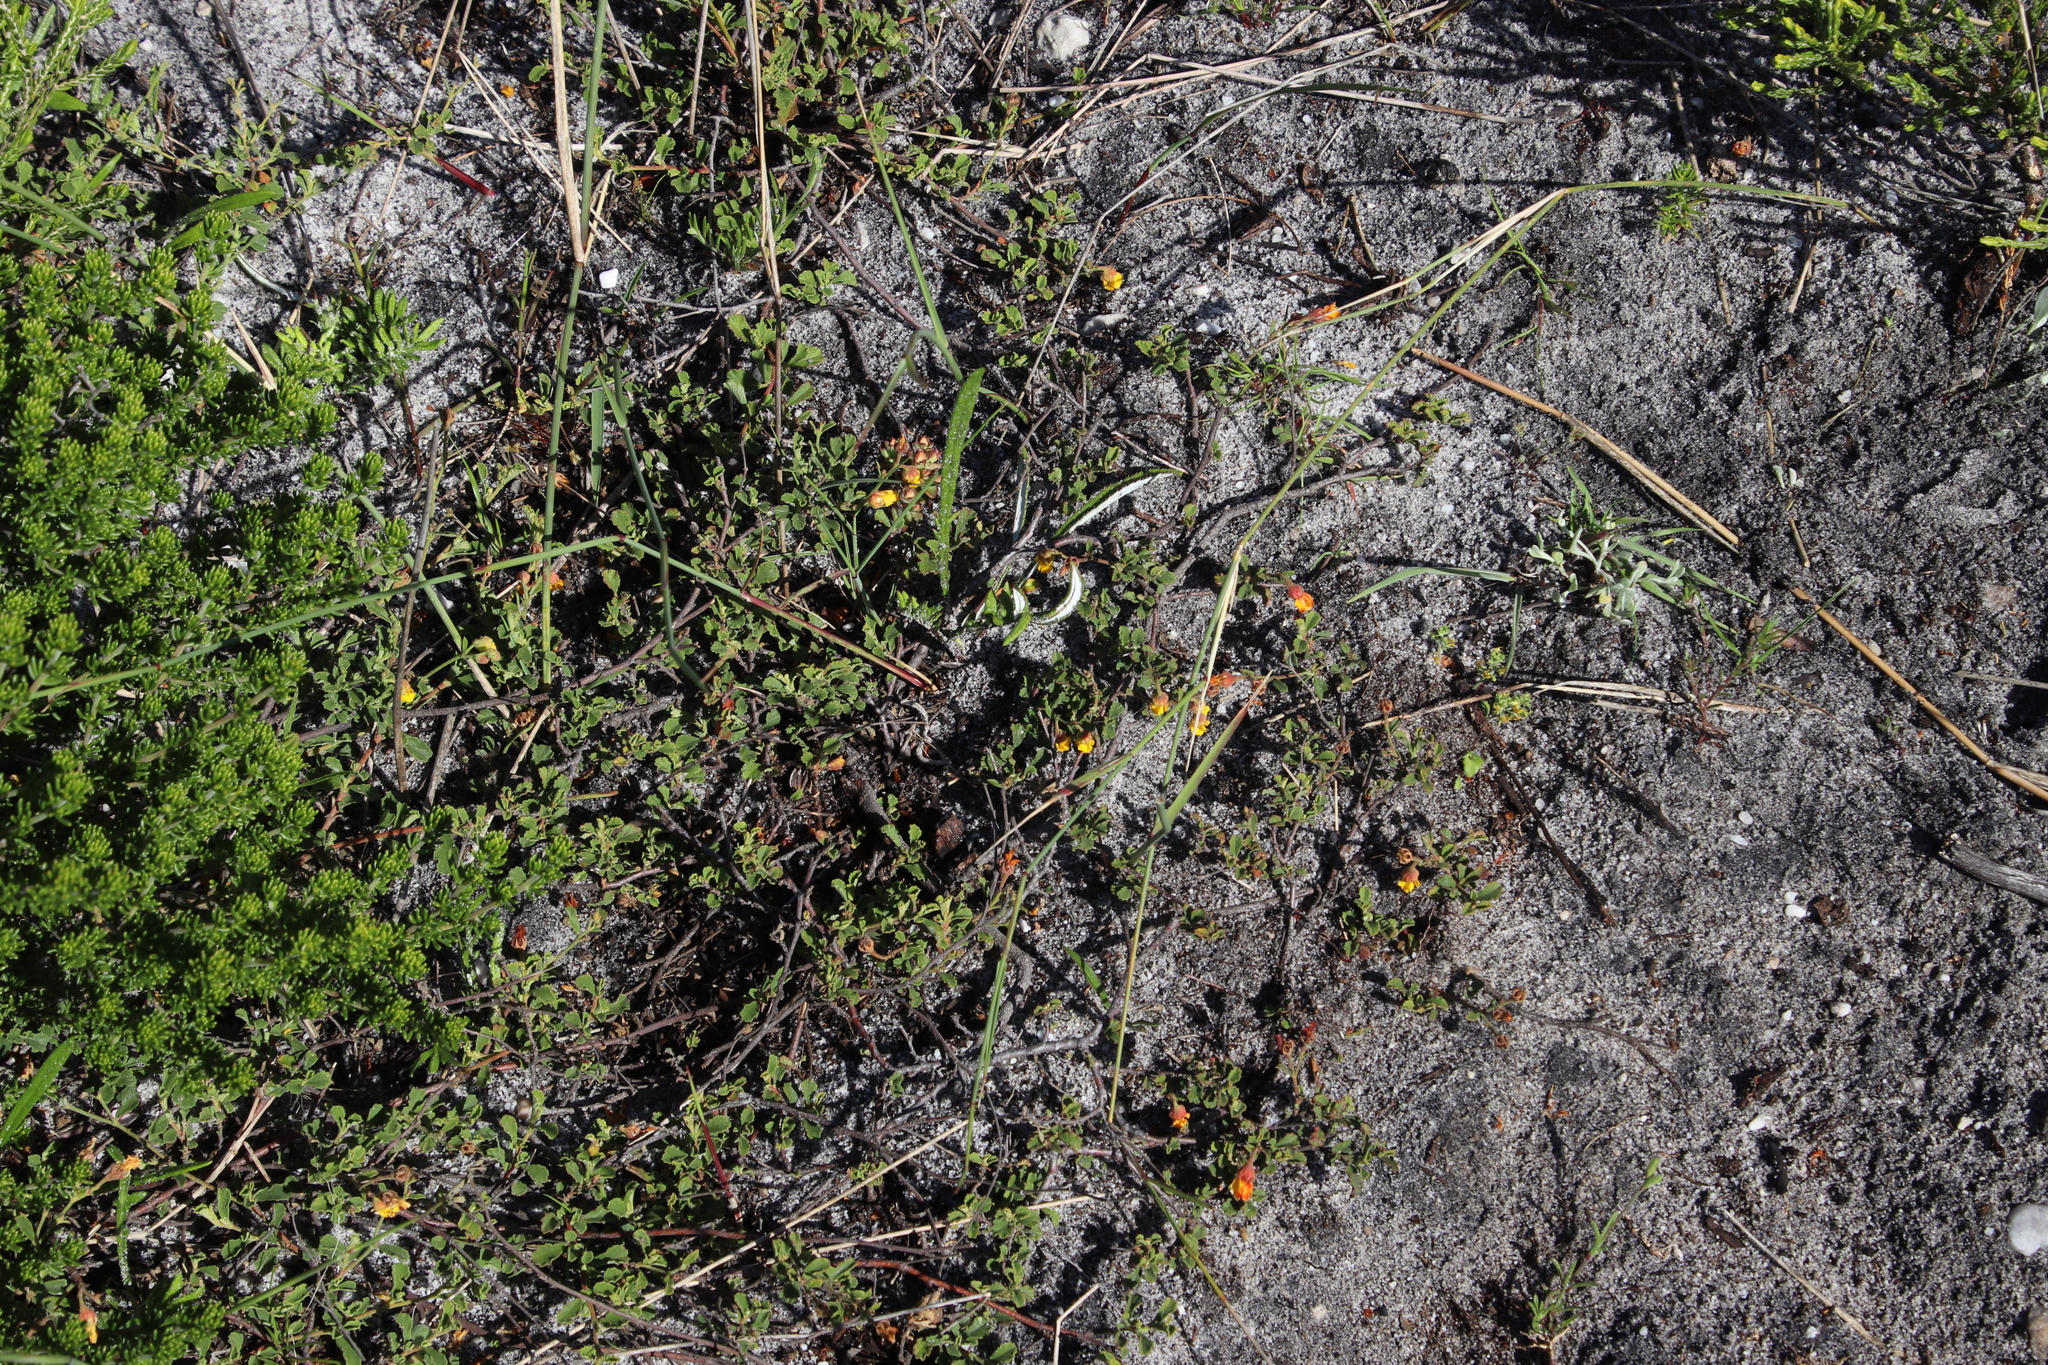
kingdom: Plantae
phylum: Tracheophyta
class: Magnoliopsida
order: Malvales
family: Malvaceae
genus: Hermannia
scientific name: Hermannia multiflora
